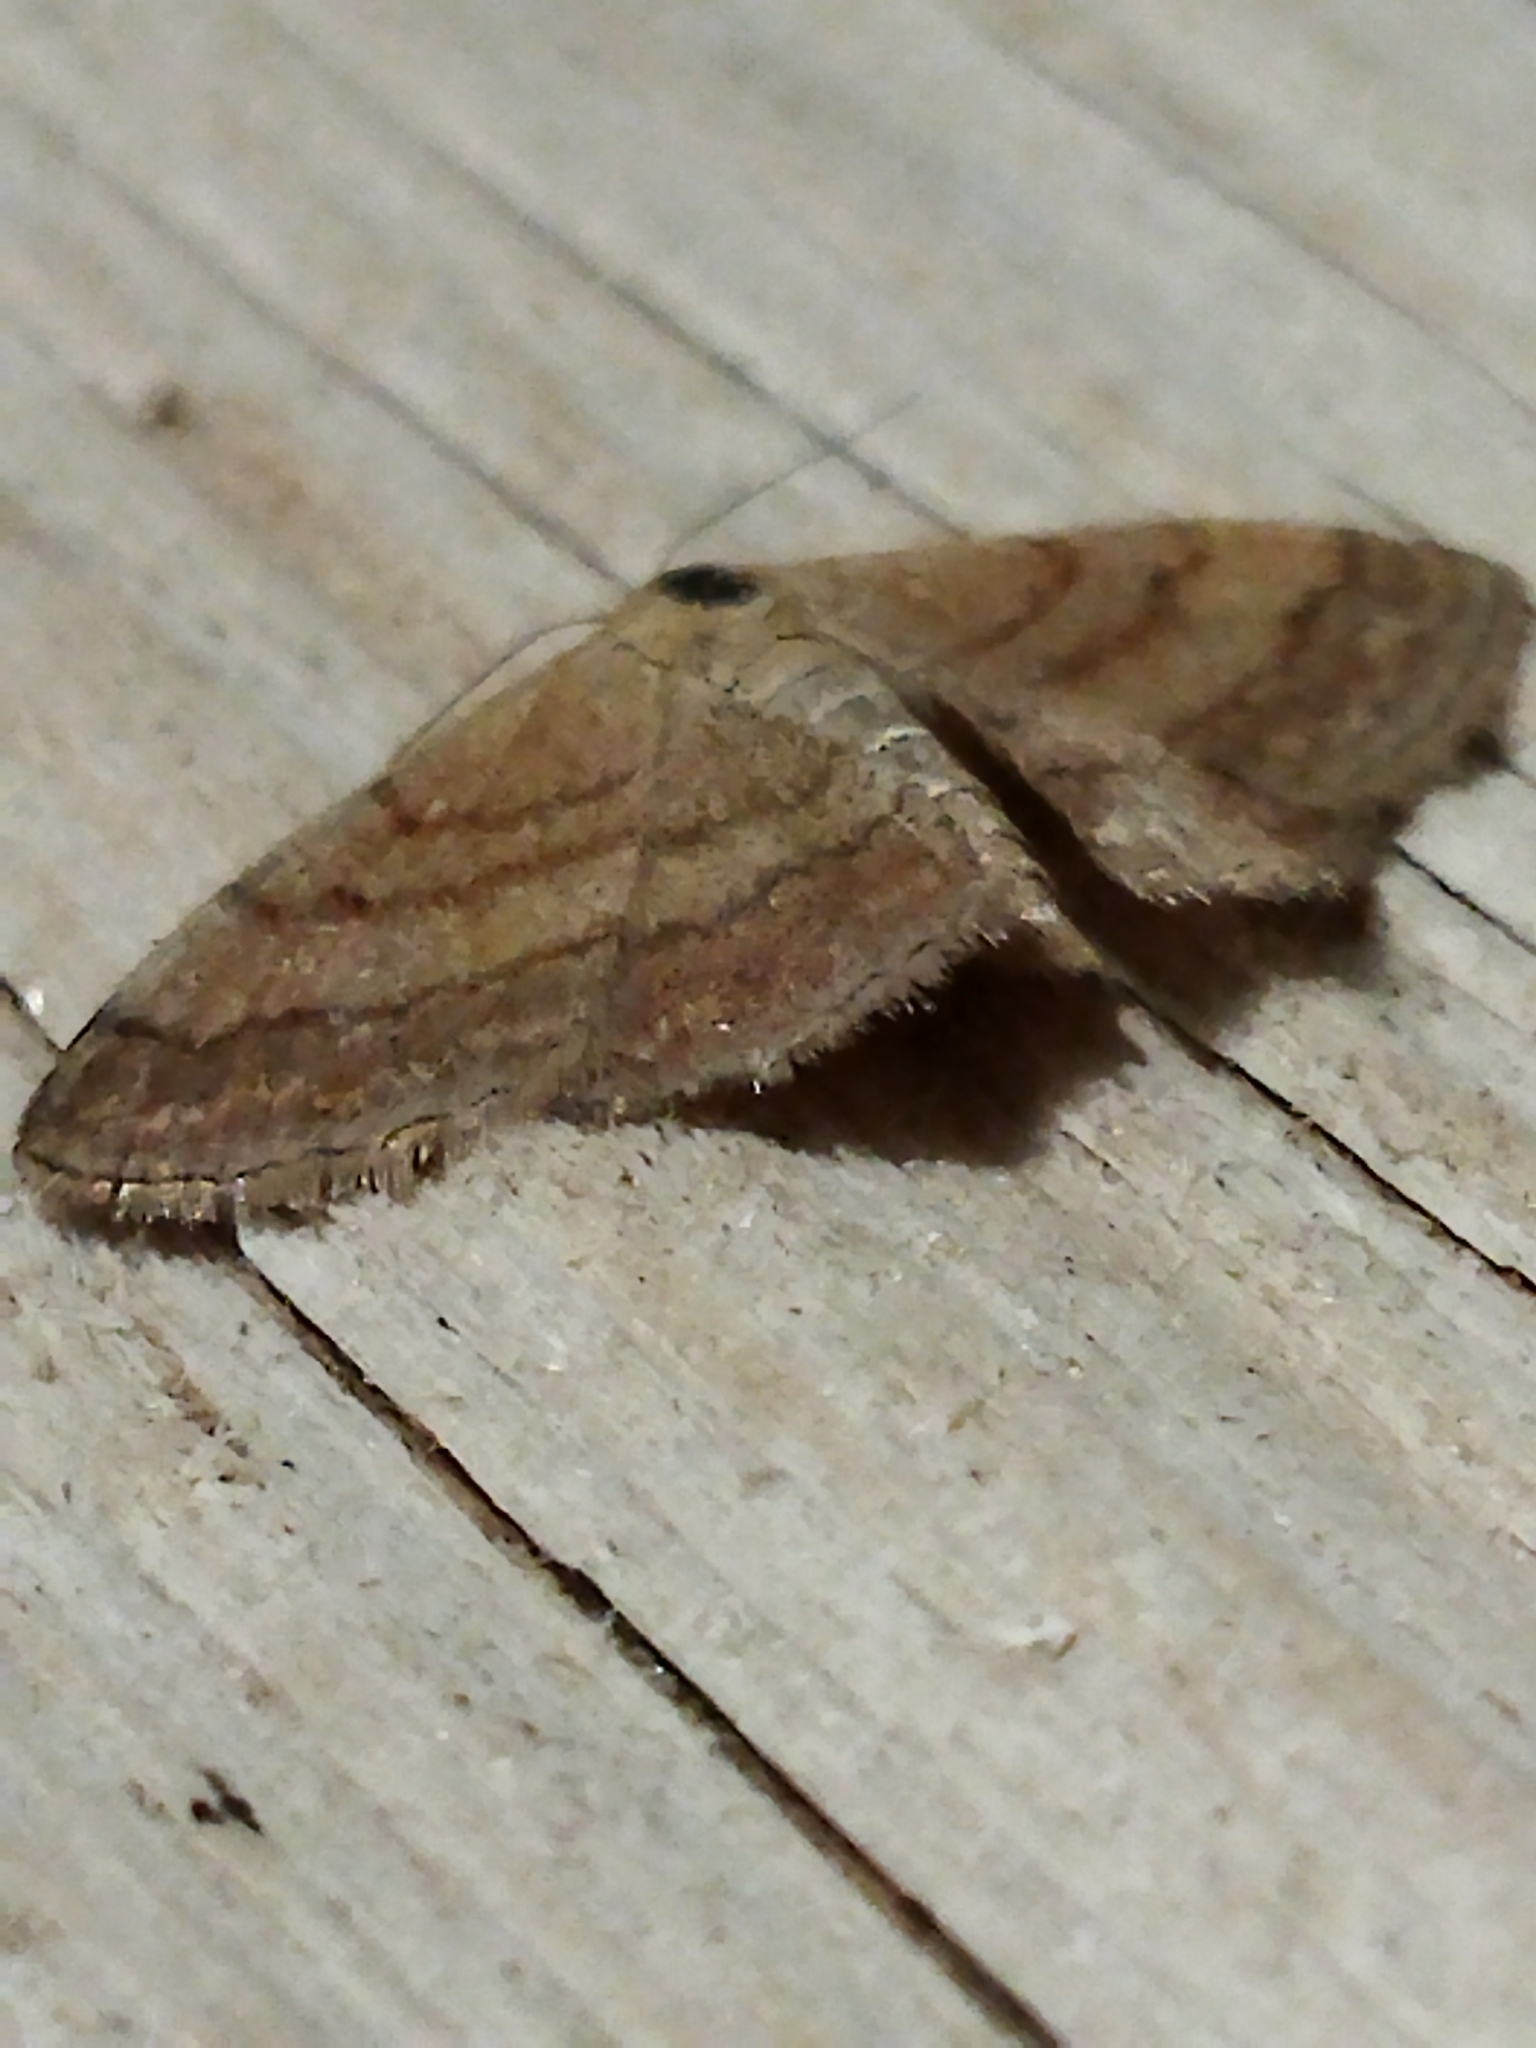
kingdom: Animalia
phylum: Arthropoda
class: Insecta
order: Lepidoptera
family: Geometridae
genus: Scopula
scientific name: Scopula rubiginata
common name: Tawny wave
